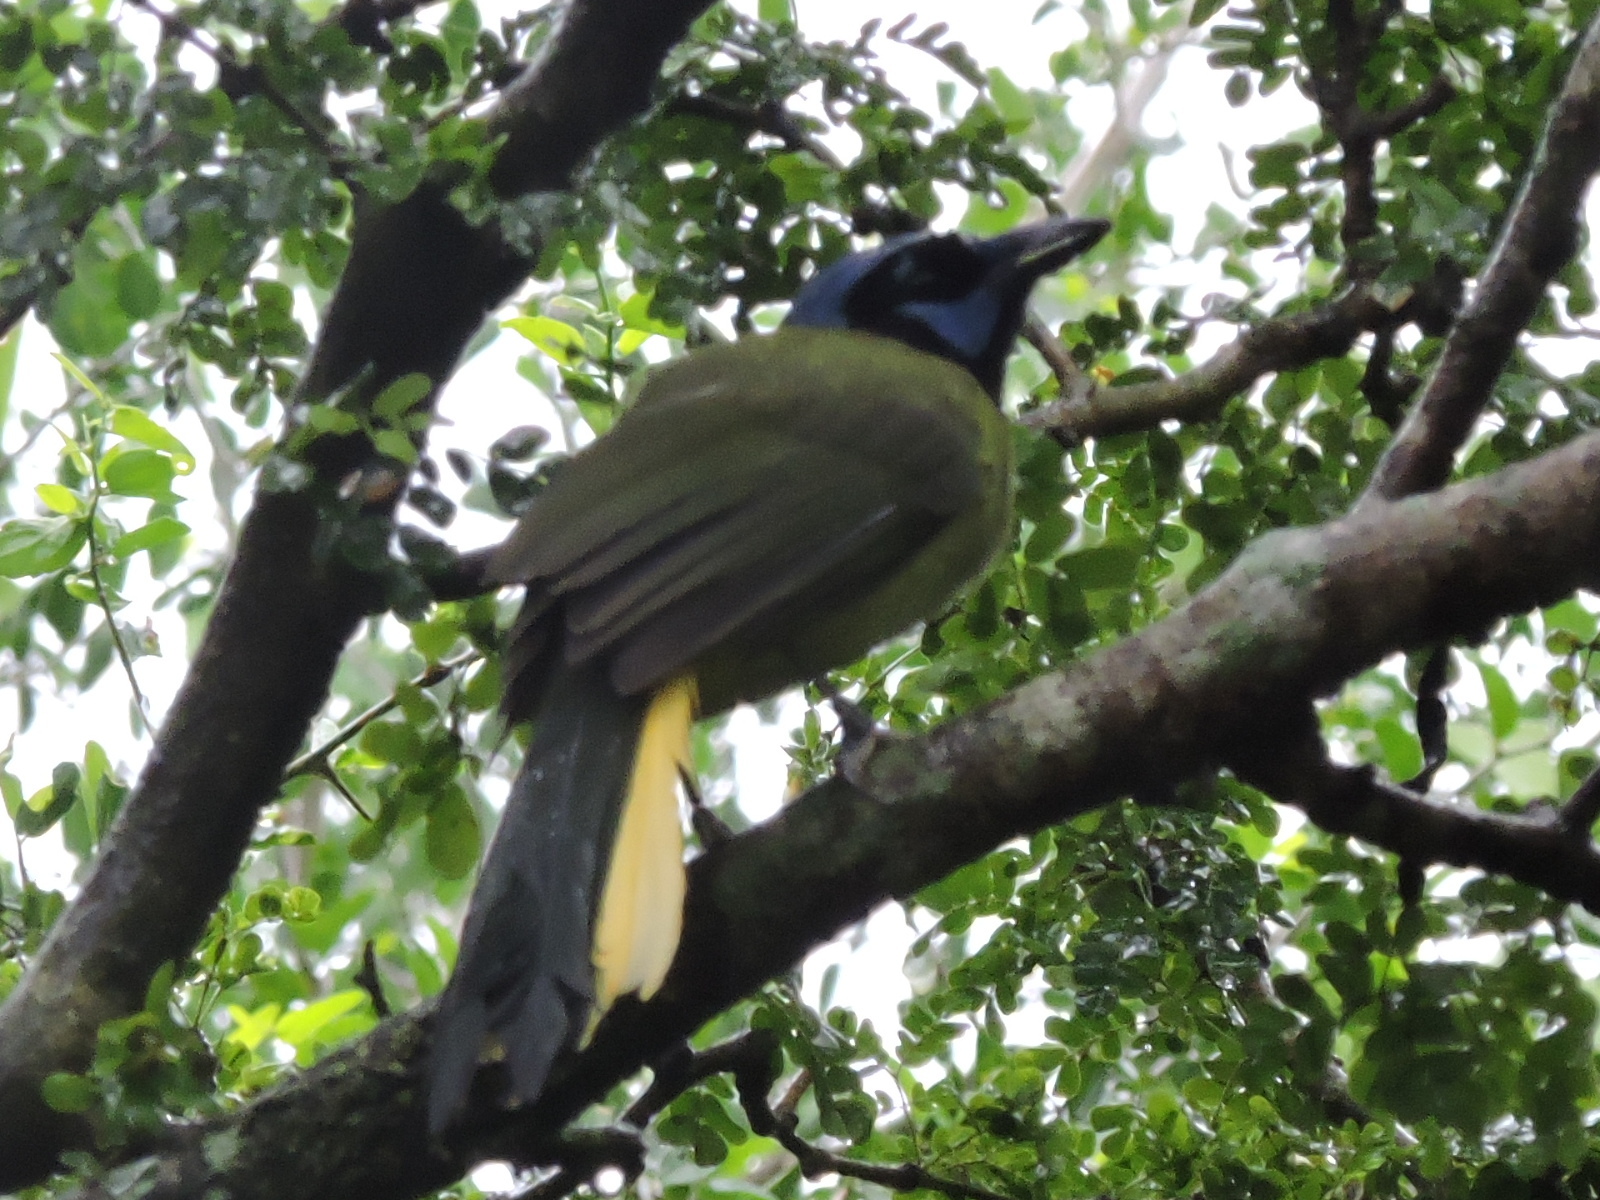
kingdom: Animalia
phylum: Chordata
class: Aves
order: Passeriformes
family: Corvidae
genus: Cyanocorax
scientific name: Cyanocorax yncas
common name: Green jay
